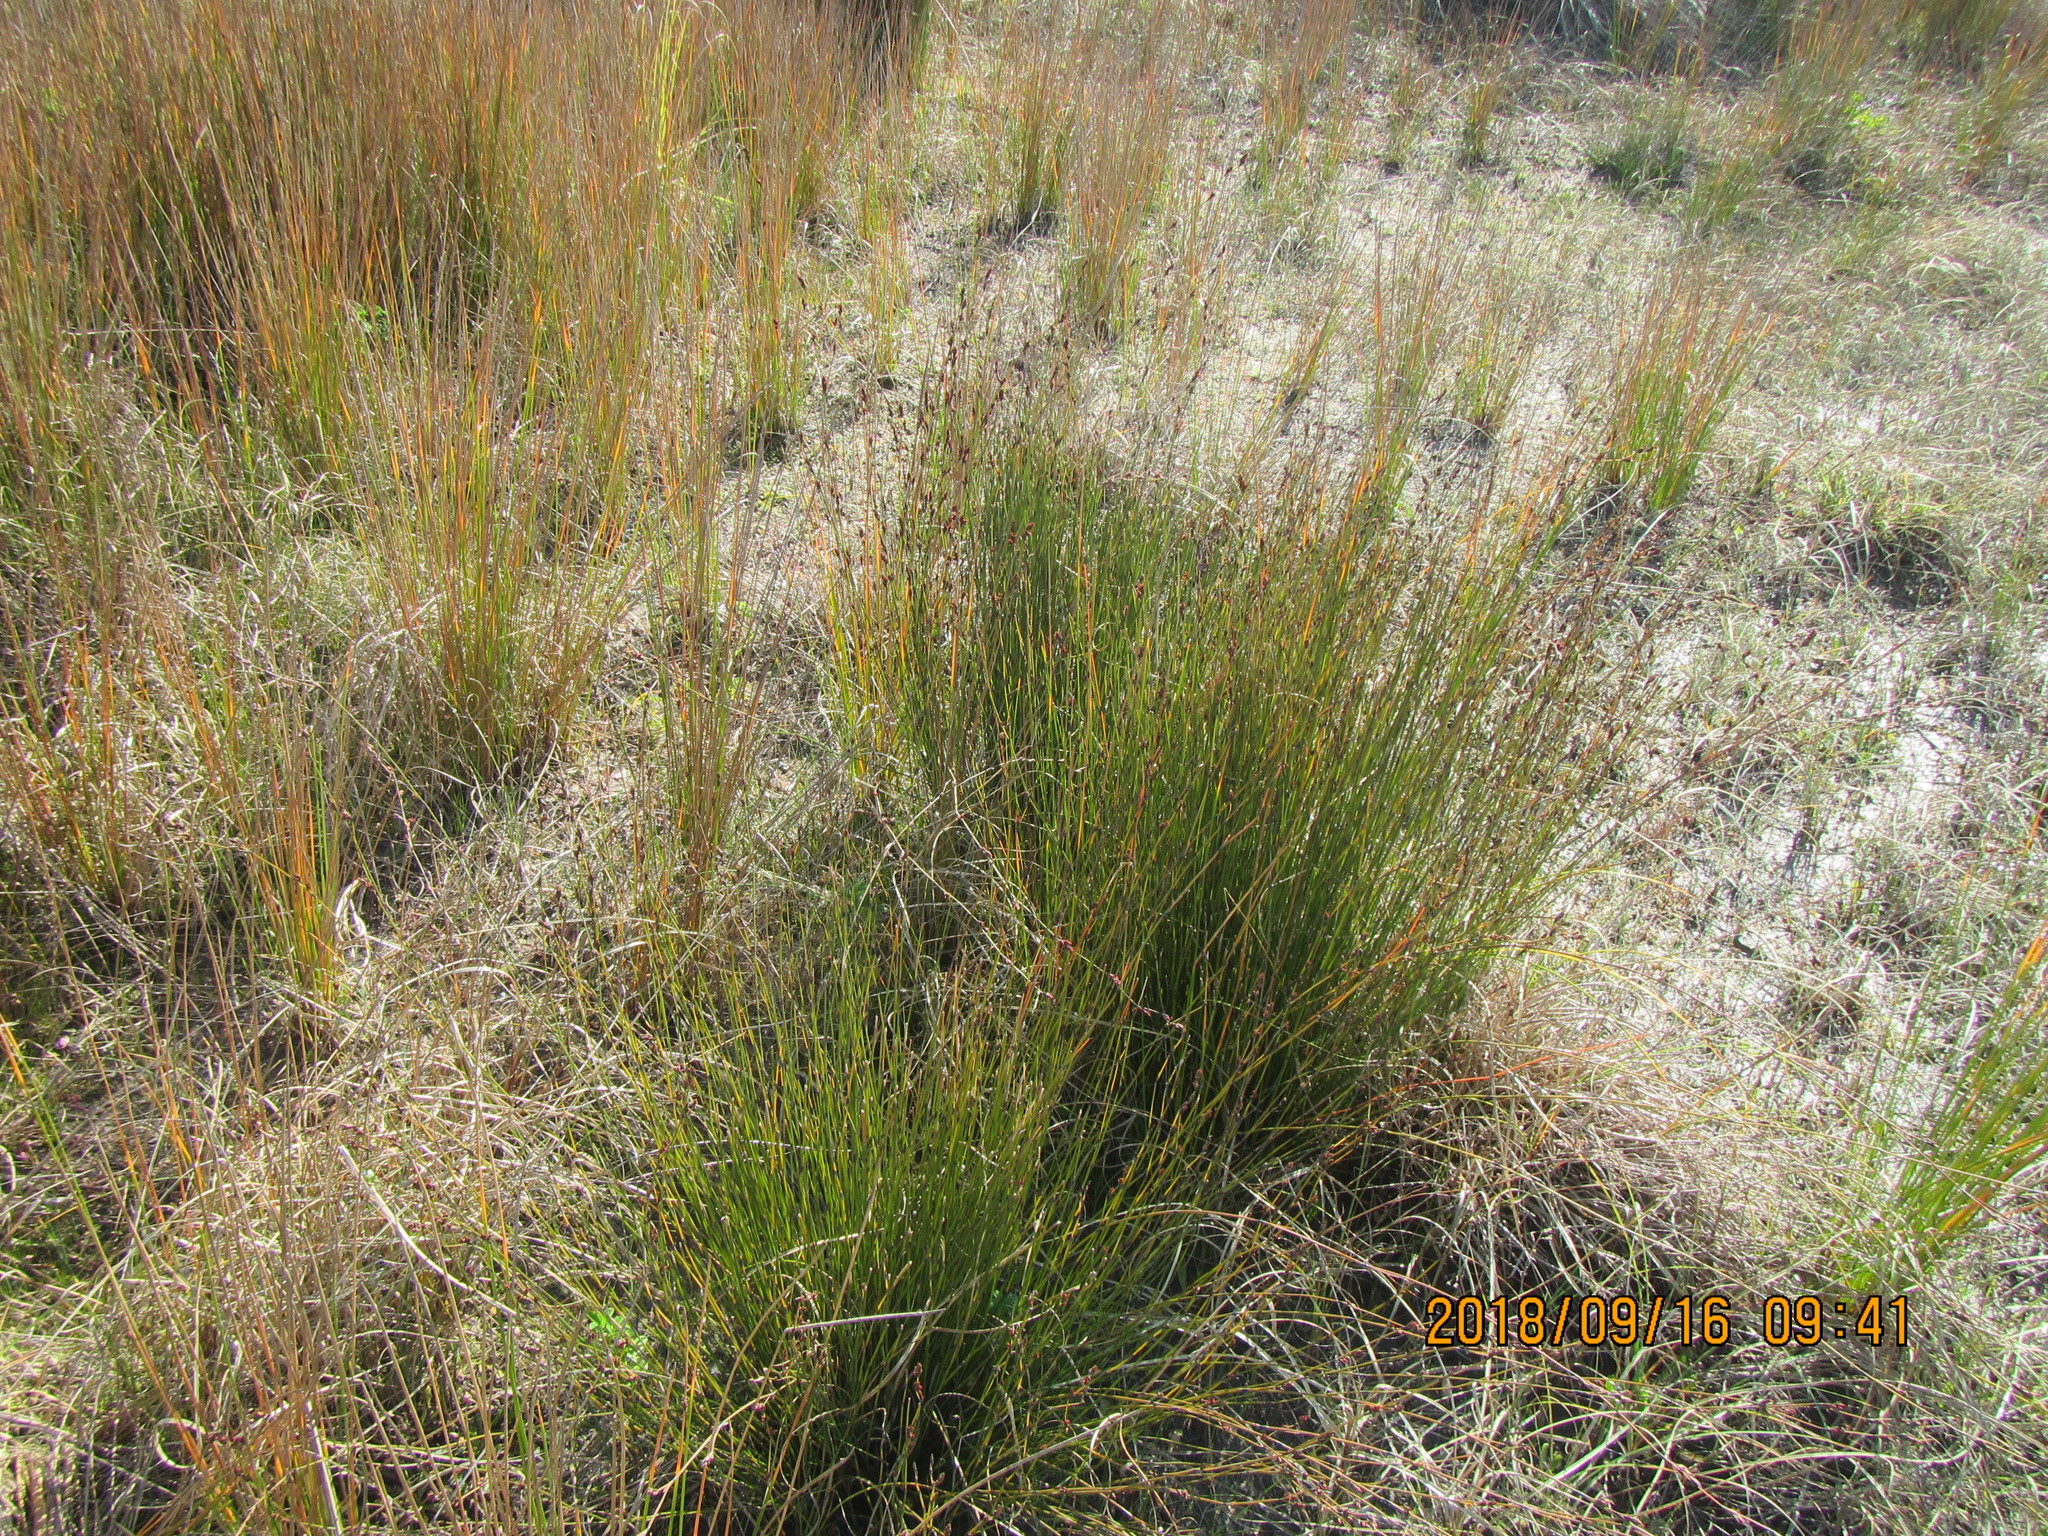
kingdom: Plantae
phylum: Tracheophyta
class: Liliopsida
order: Poales
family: Restionaceae
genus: Apodasmia
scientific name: Apodasmia similis
